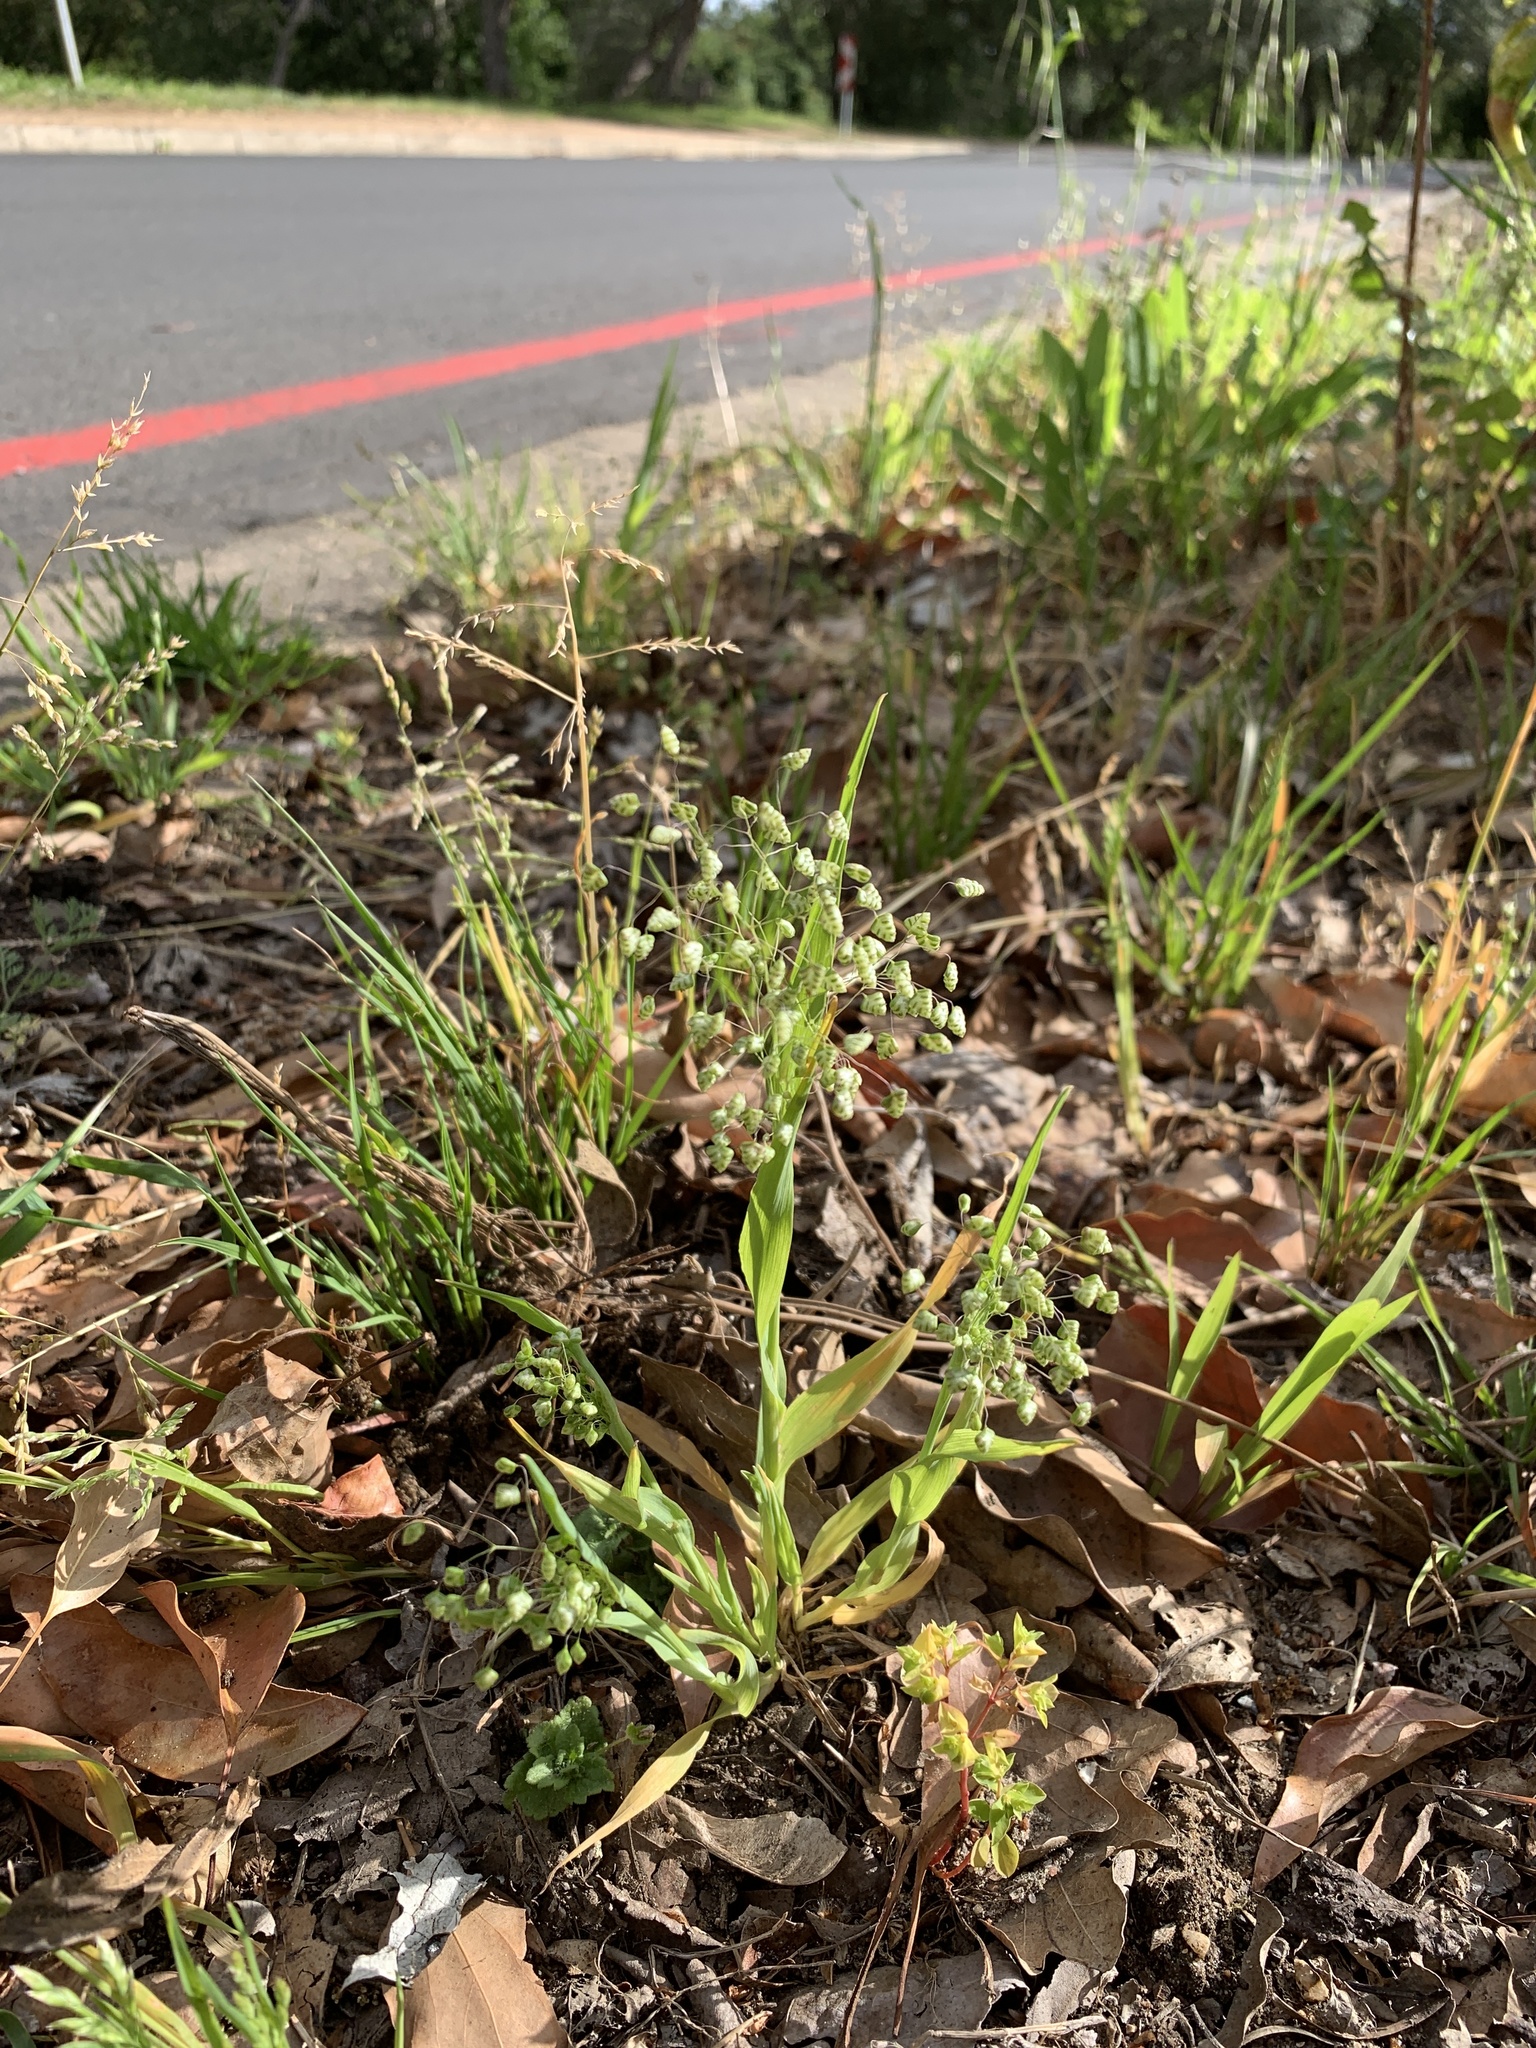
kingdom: Plantae
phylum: Tracheophyta
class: Liliopsida
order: Poales
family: Poaceae
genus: Briza
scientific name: Briza minor
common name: Lesser quaking-grass
